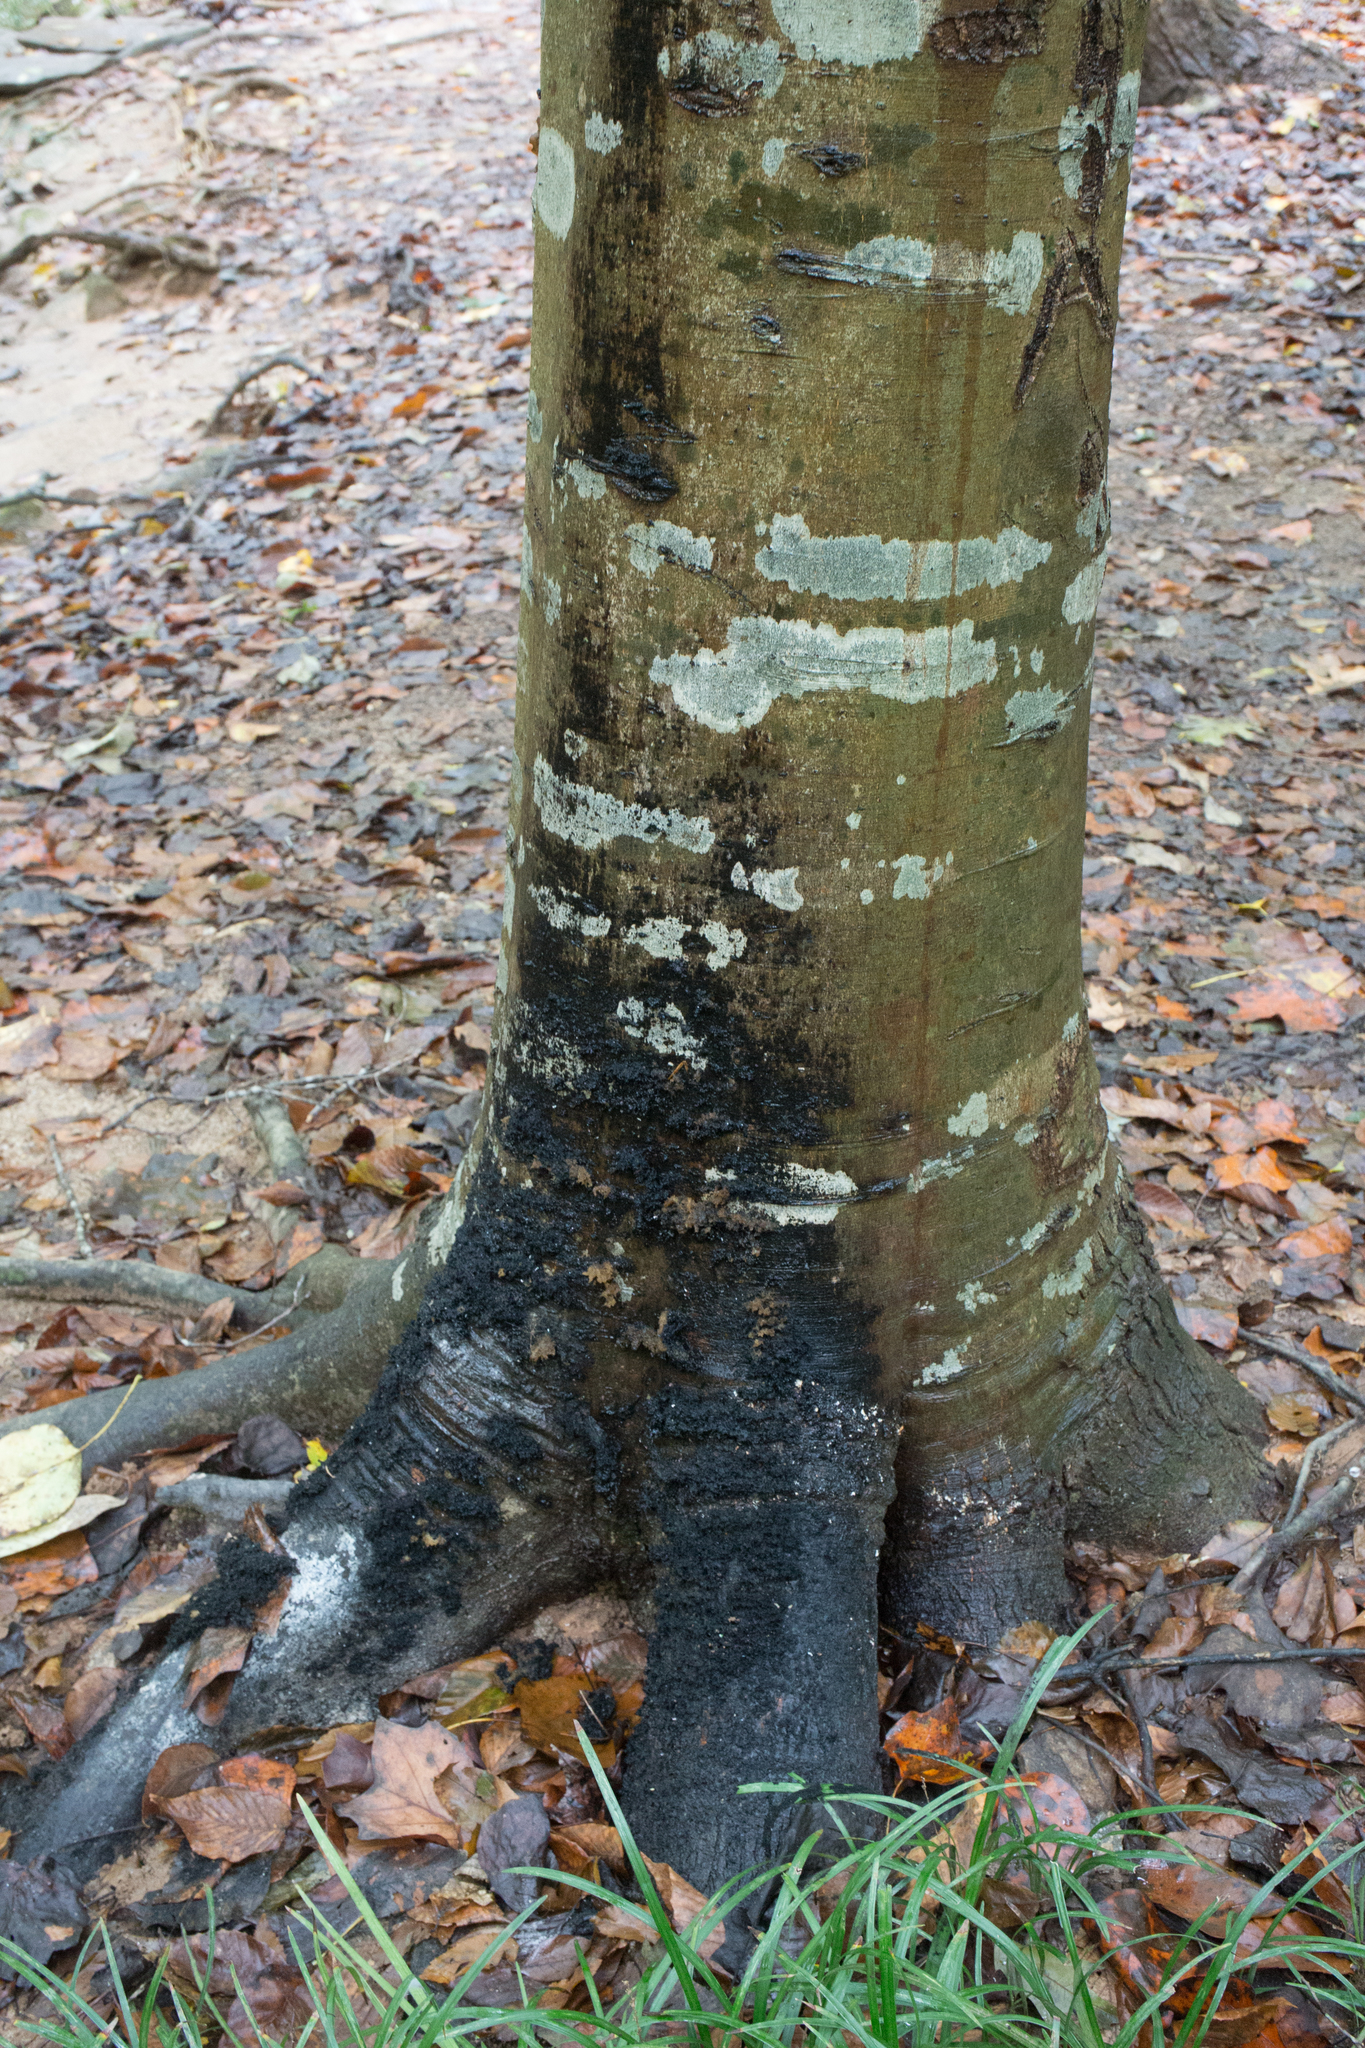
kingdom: Fungi
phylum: Ascomycota
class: Dothideomycetes
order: Capnodiales
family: Capnodiaceae
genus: Scorias
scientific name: Scorias spongiosa
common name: Black sooty mold
